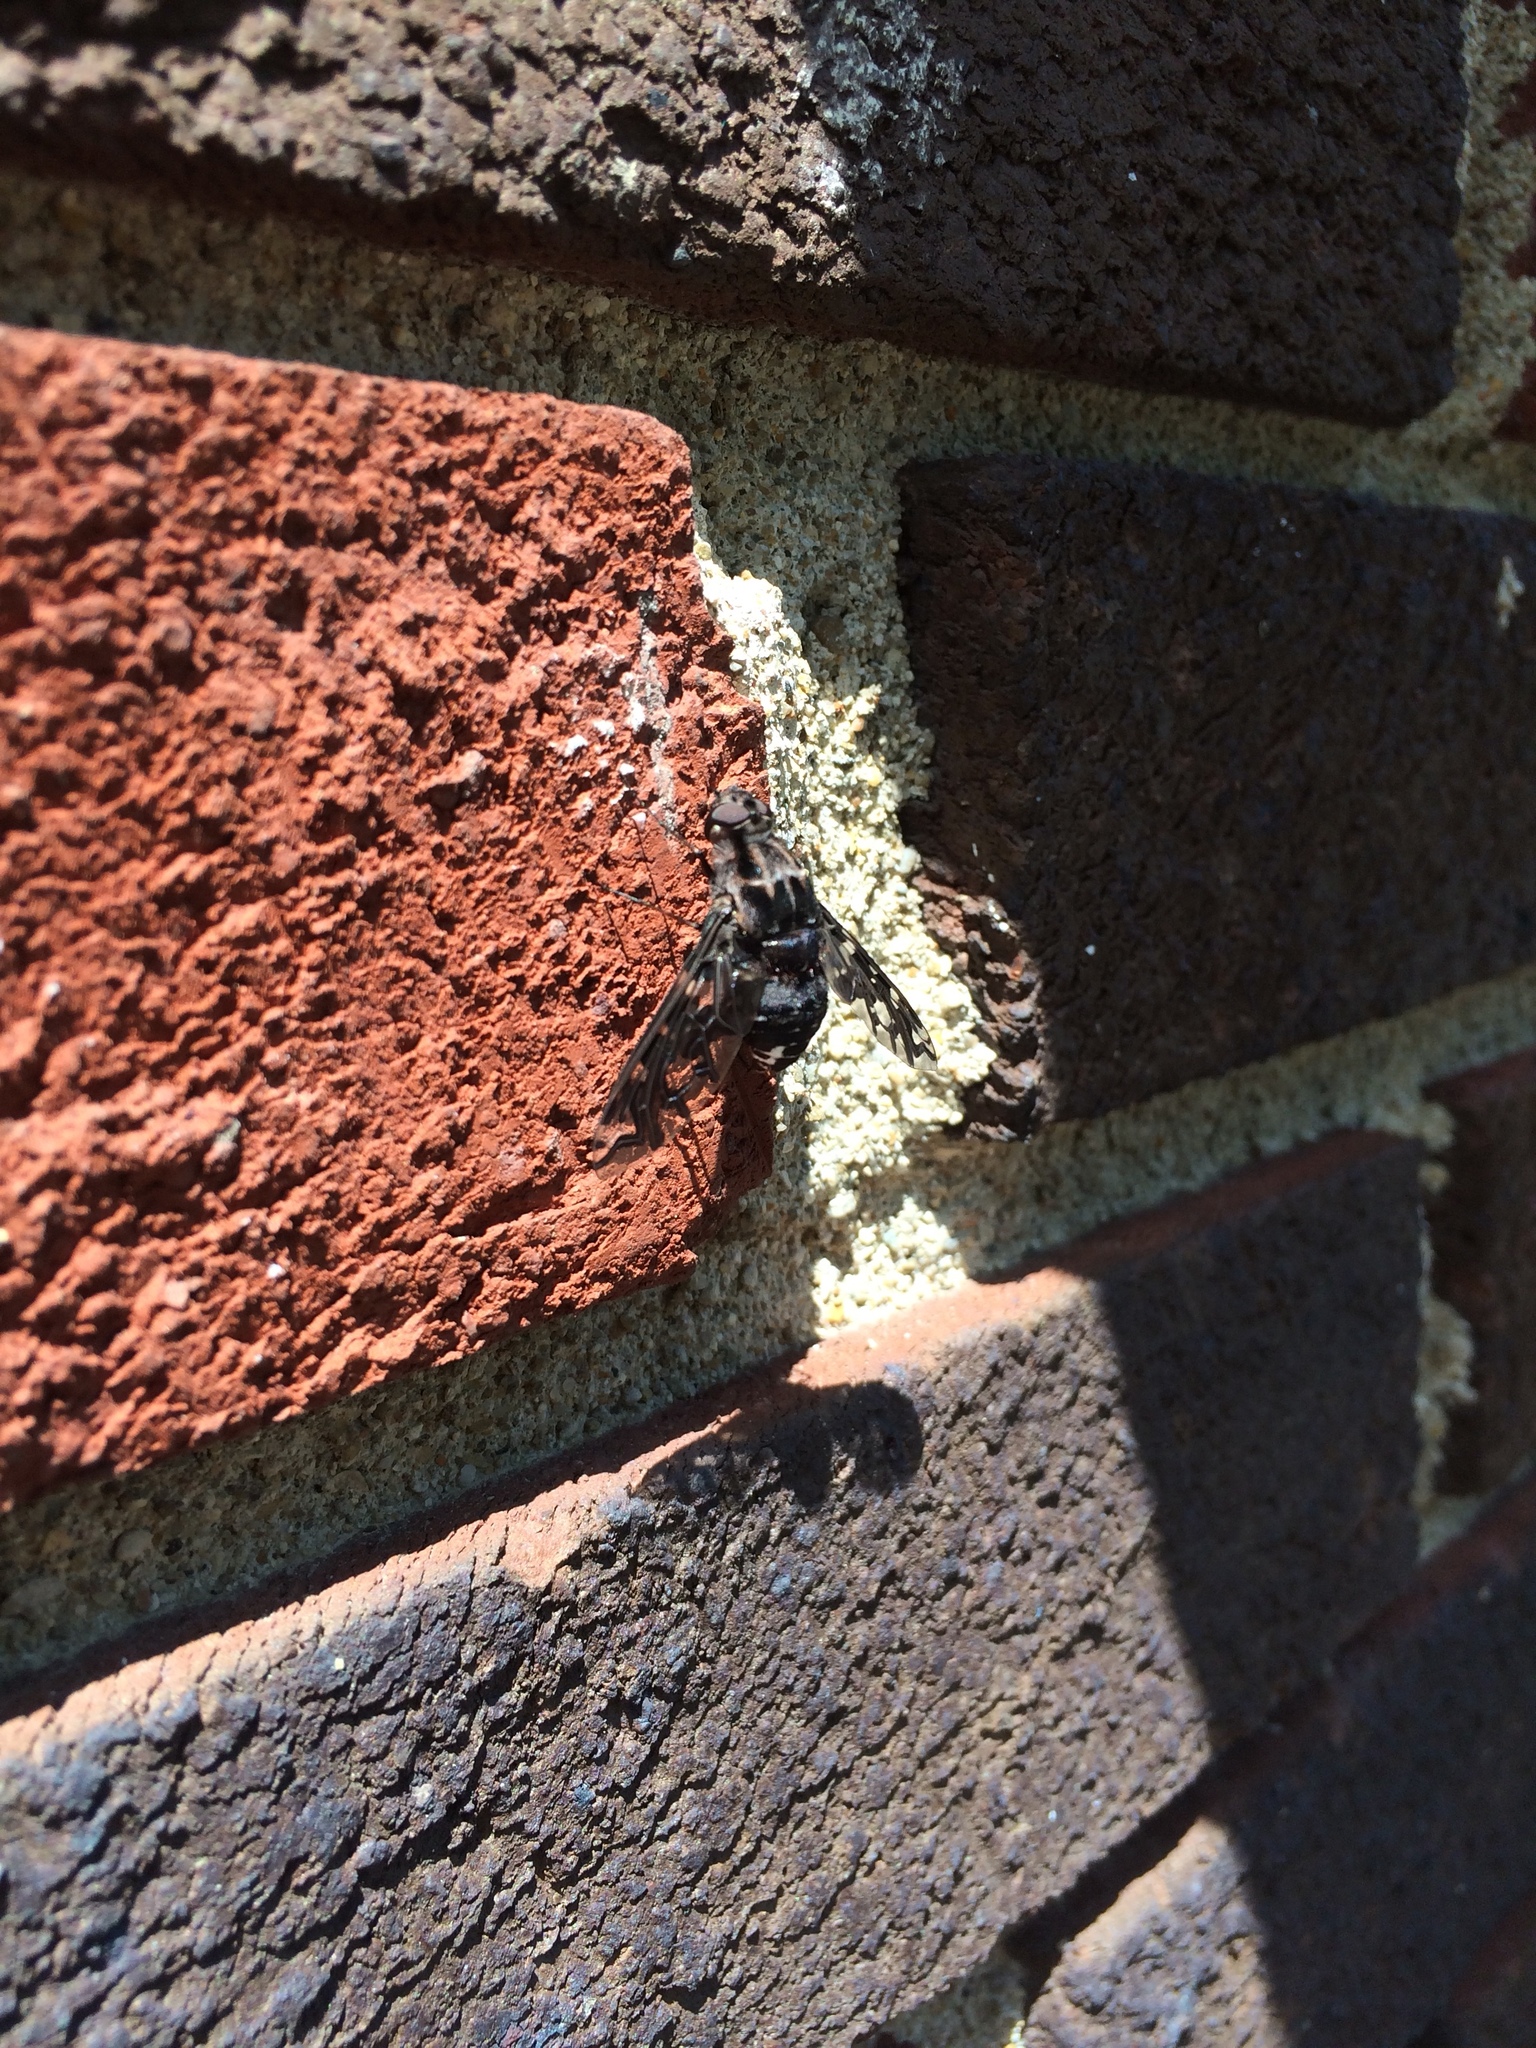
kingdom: Animalia
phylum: Arthropoda
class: Insecta
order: Diptera
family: Bombyliidae
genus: Xenox
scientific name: Xenox tigrinus
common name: Tiger bee fly
